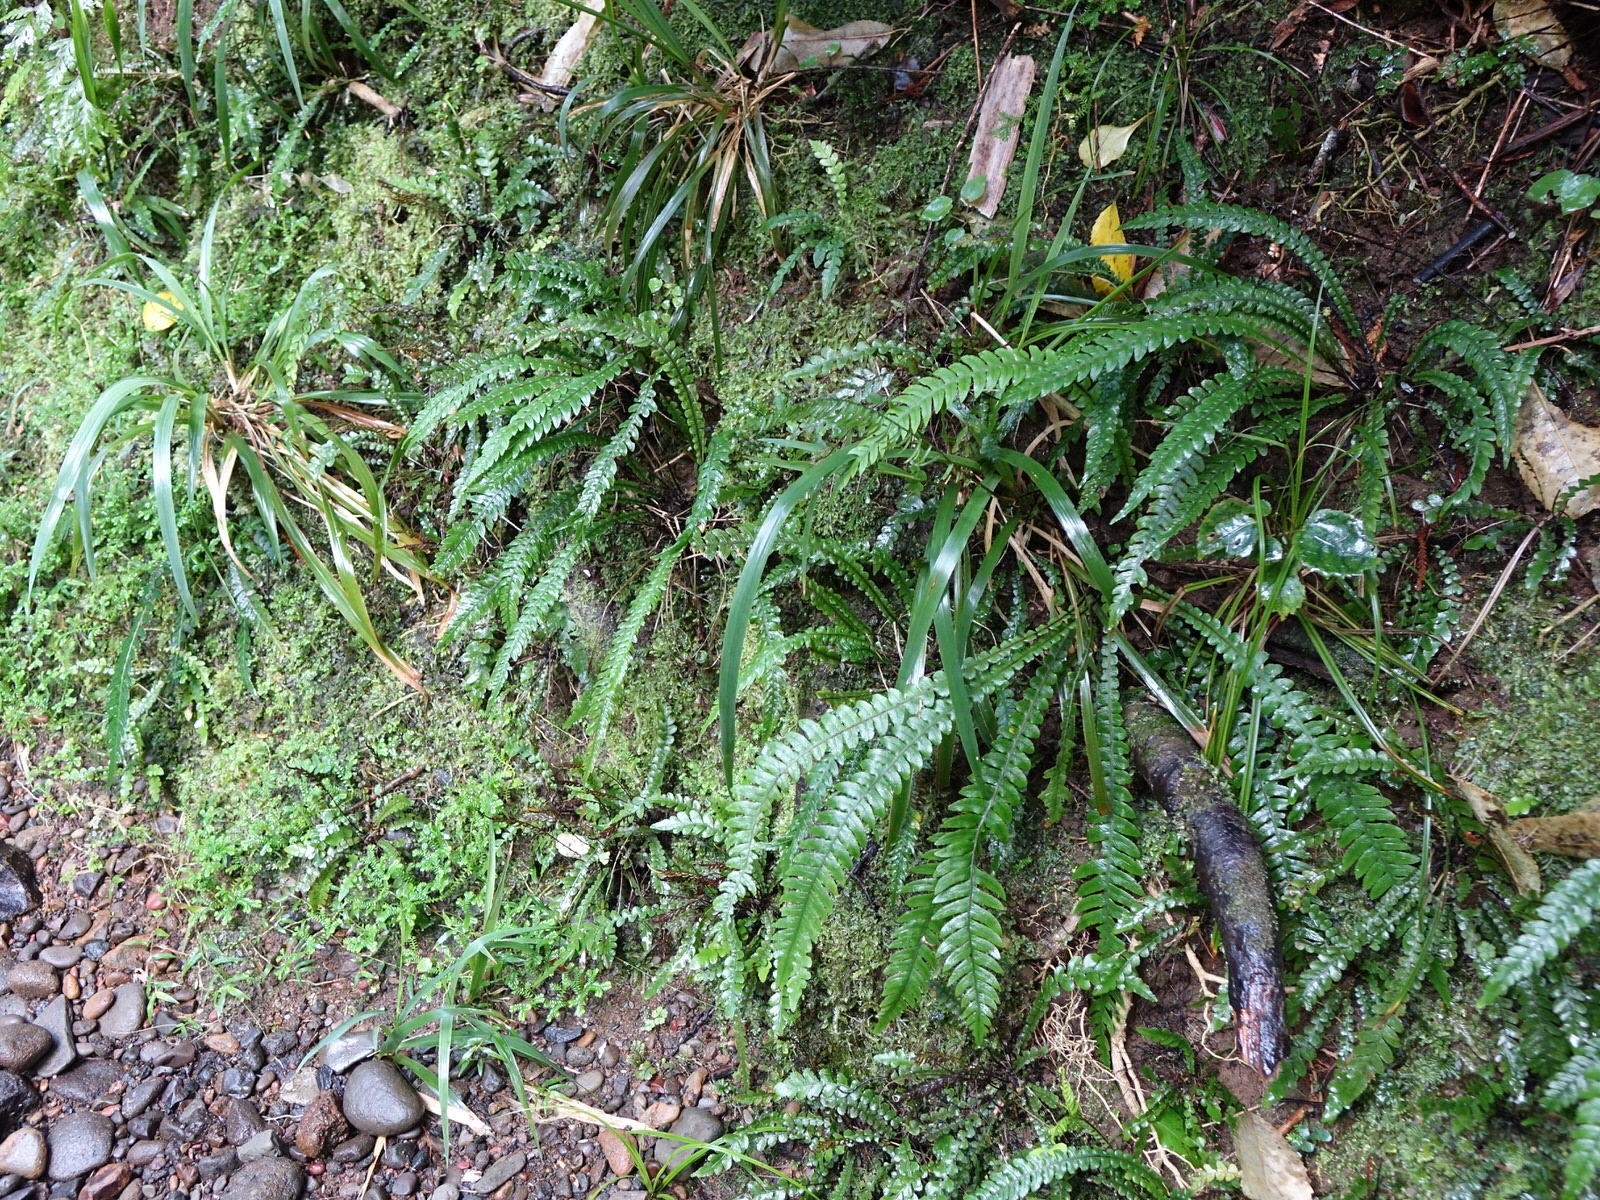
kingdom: Plantae
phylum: Tracheophyta
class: Polypodiopsida
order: Polypodiales
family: Blechnaceae
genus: Austroblechnum
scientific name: Austroblechnum lanceolatum
